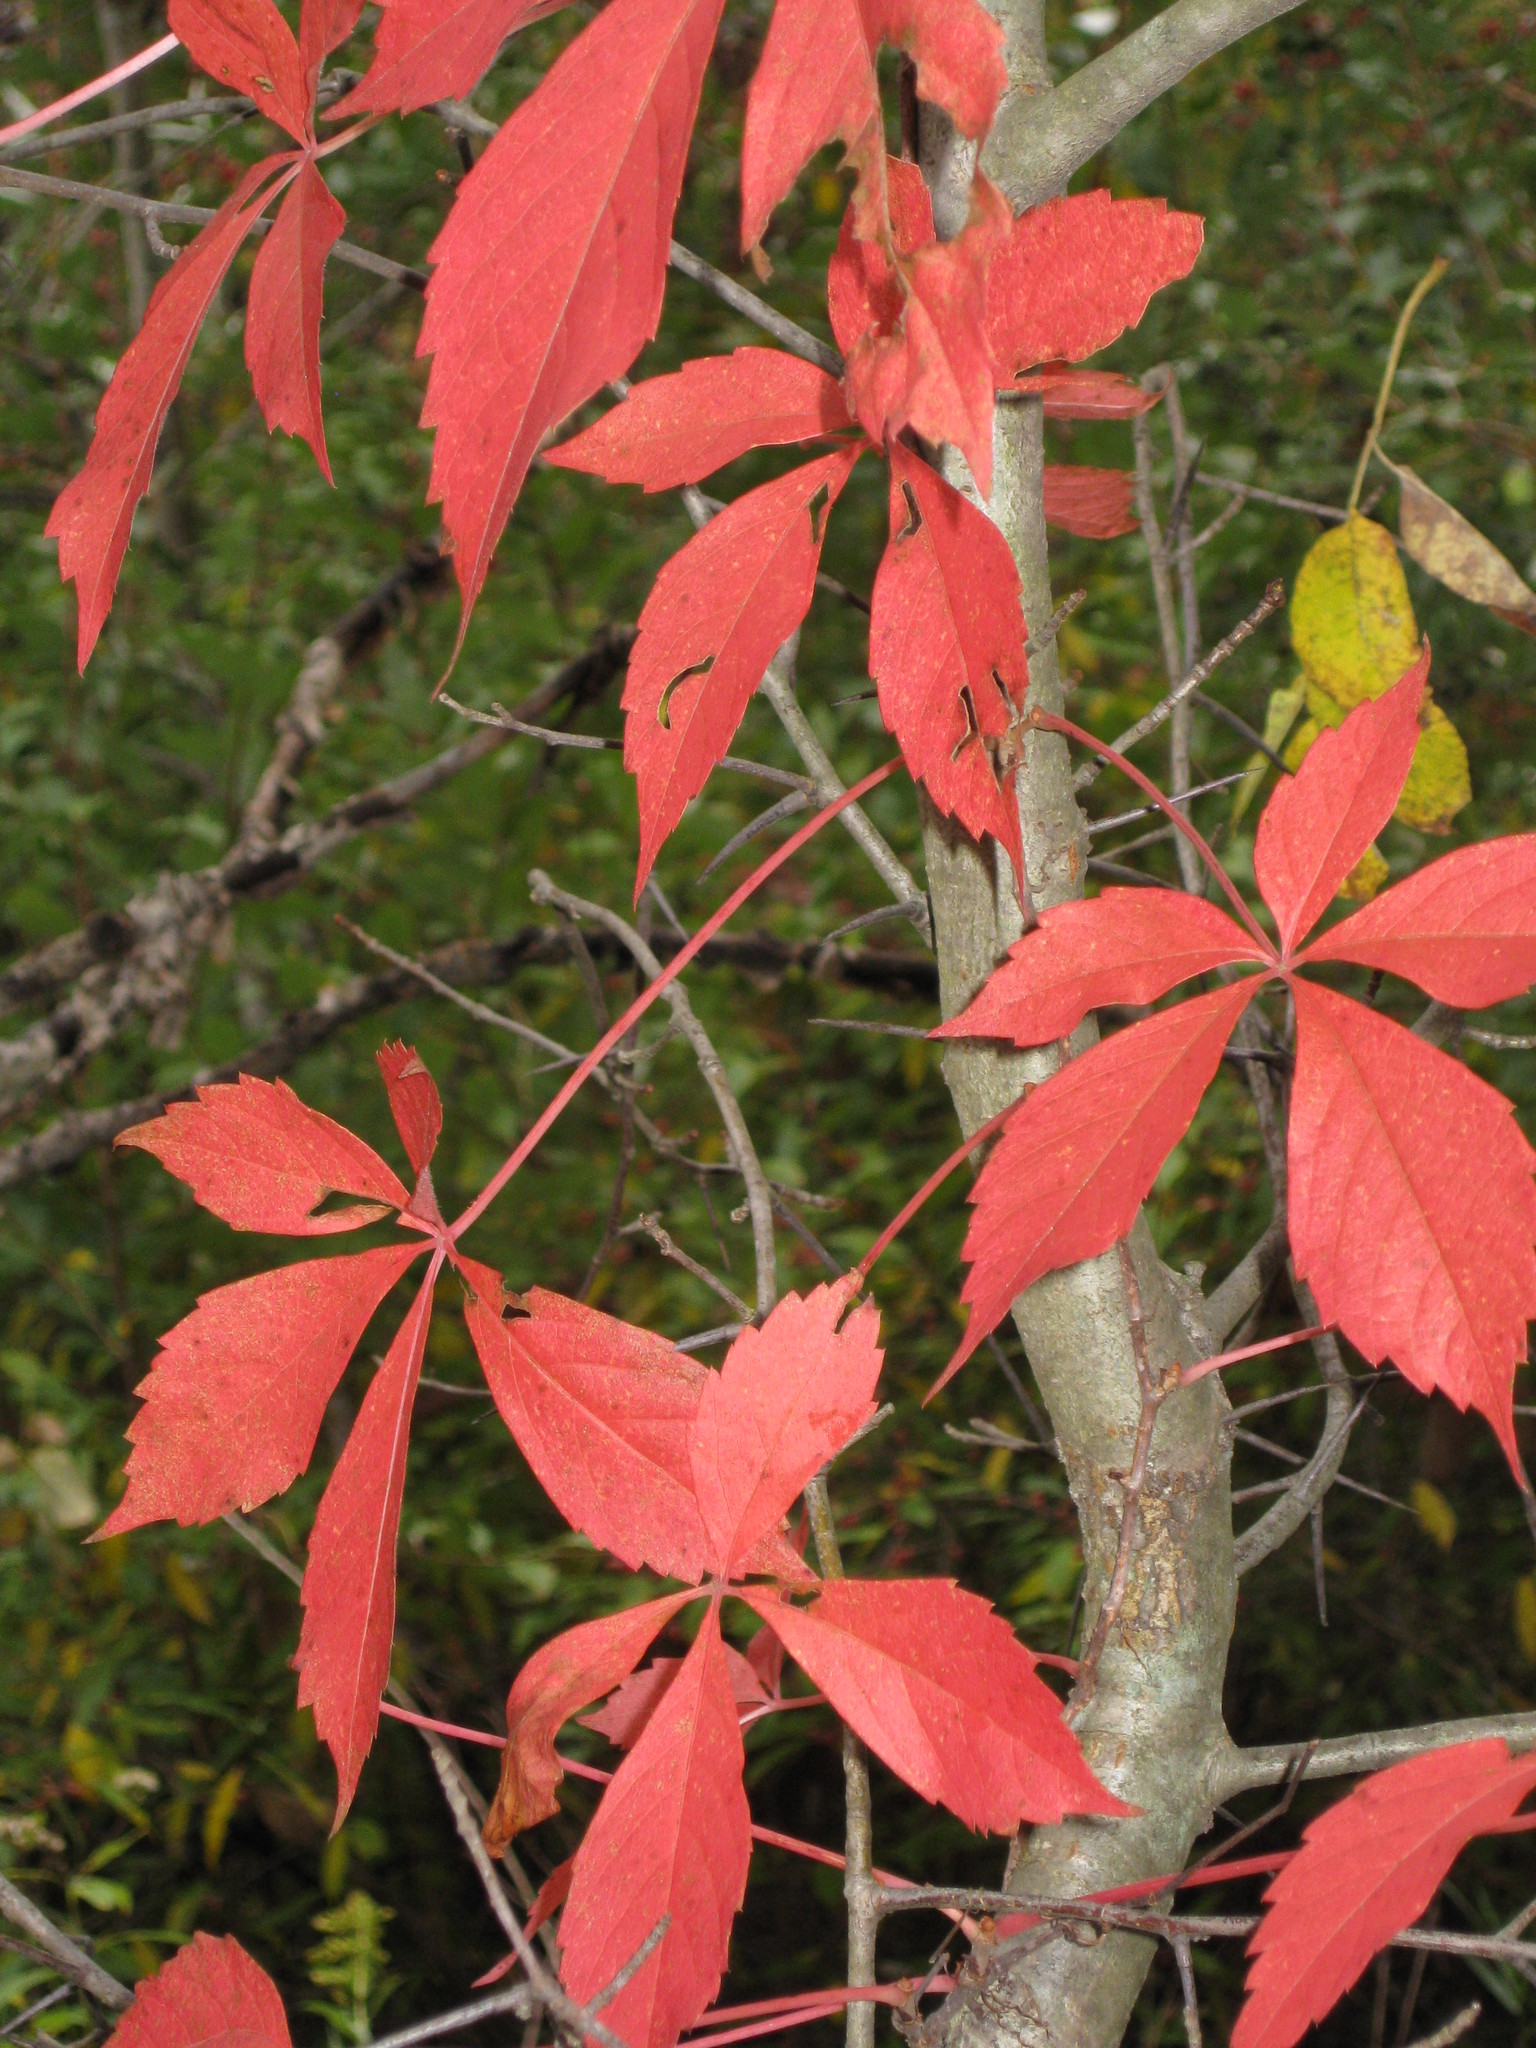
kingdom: Plantae
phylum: Tracheophyta
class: Magnoliopsida
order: Vitales
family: Vitaceae
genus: Parthenocissus
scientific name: Parthenocissus quinquefolia
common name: Virginia-creeper
